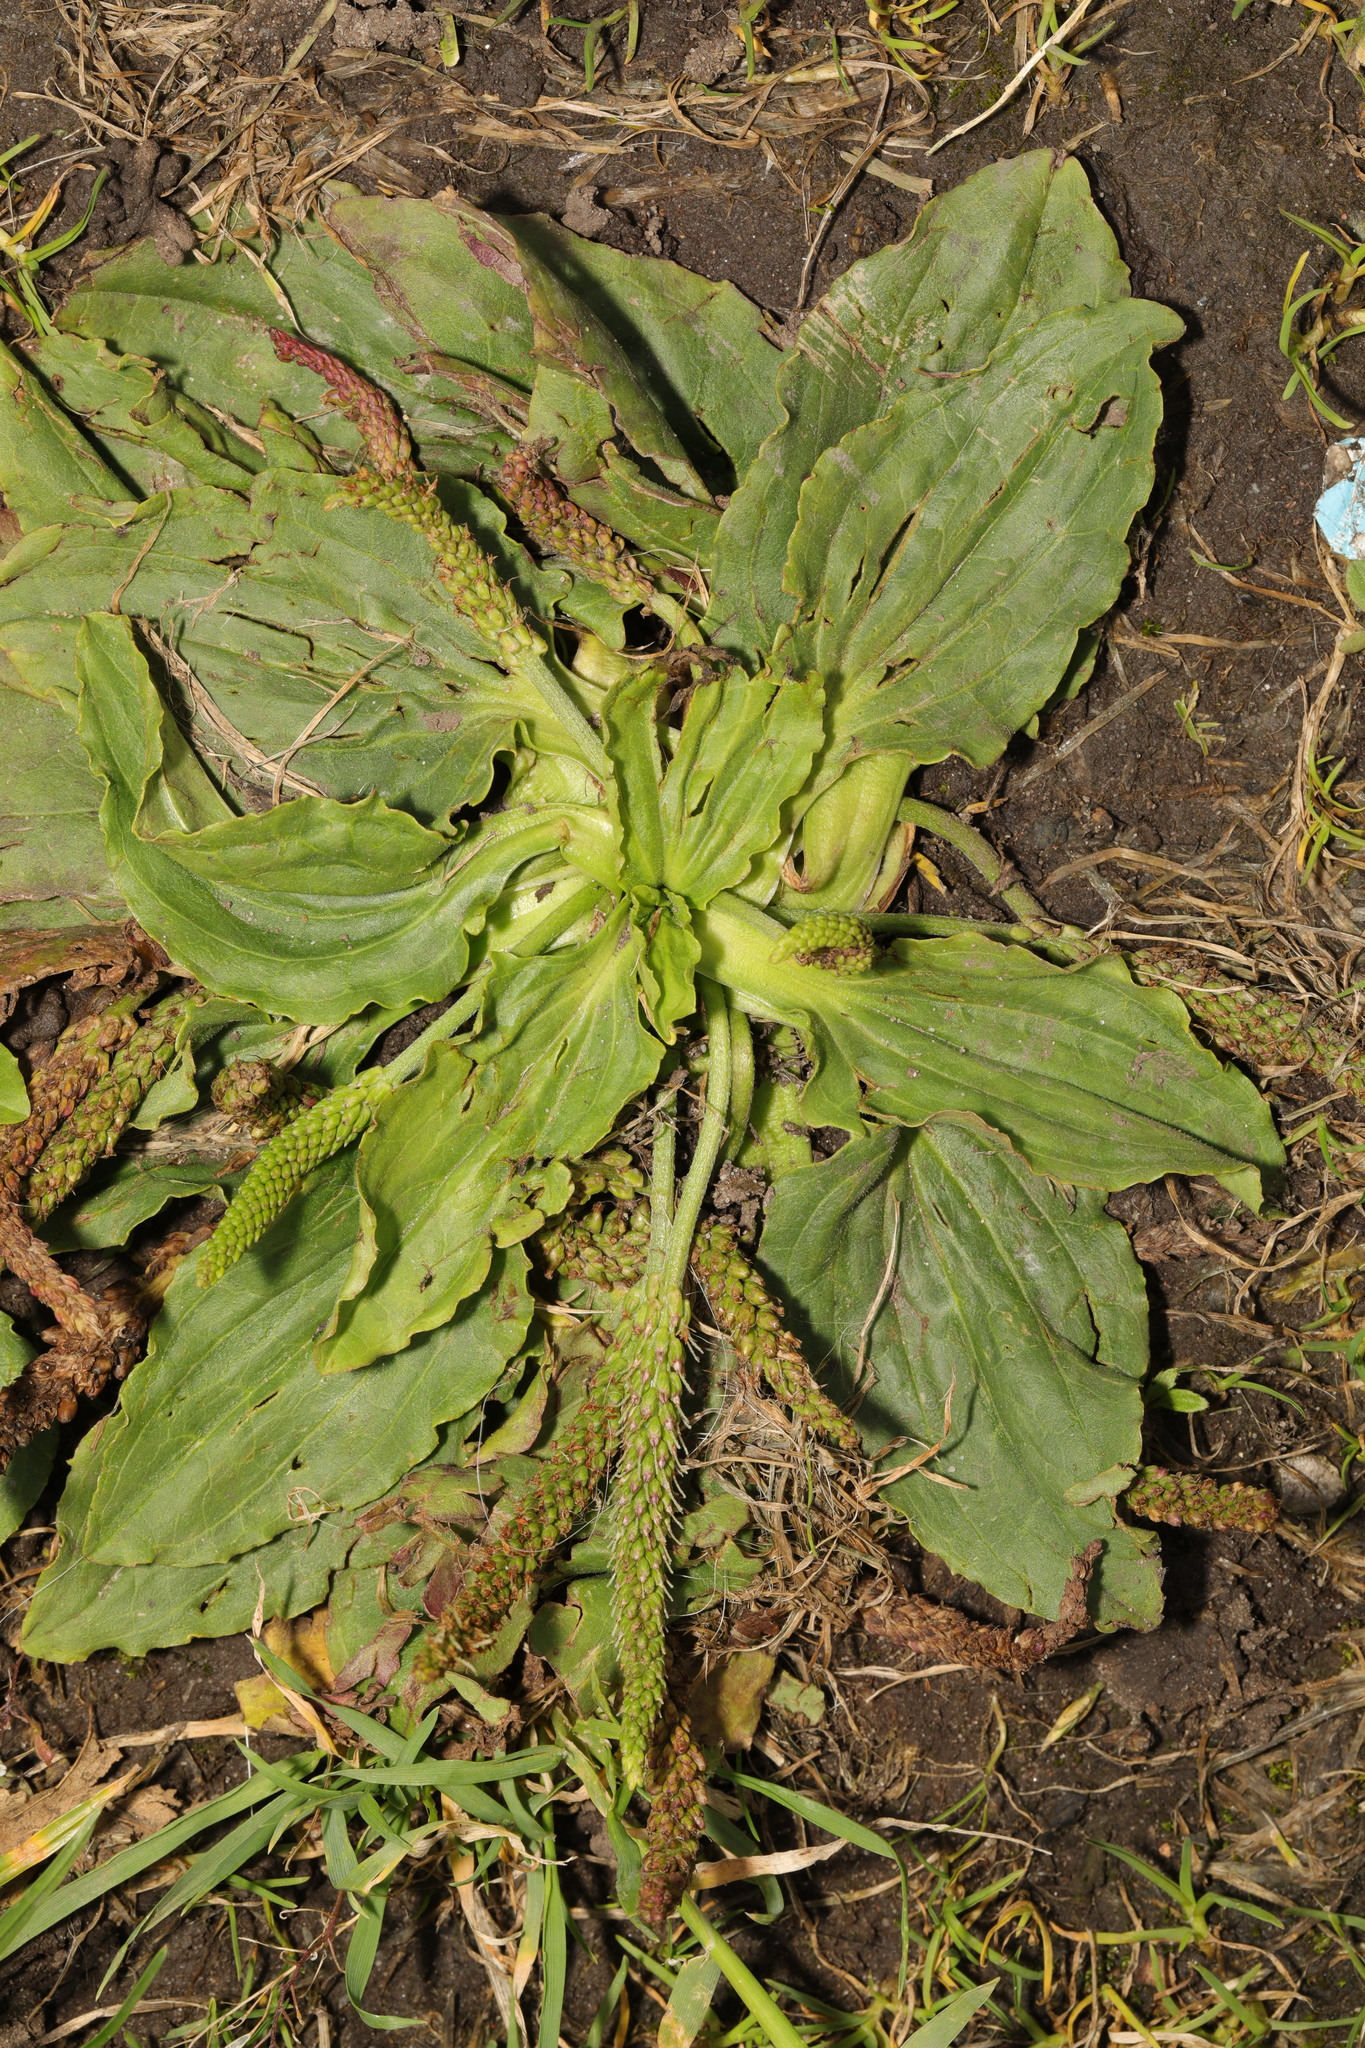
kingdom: Plantae
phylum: Tracheophyta
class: Magnoliopsida
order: Lamiales
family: Plantaginaceae
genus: Plantago
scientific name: Plantago major
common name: Common plantain
